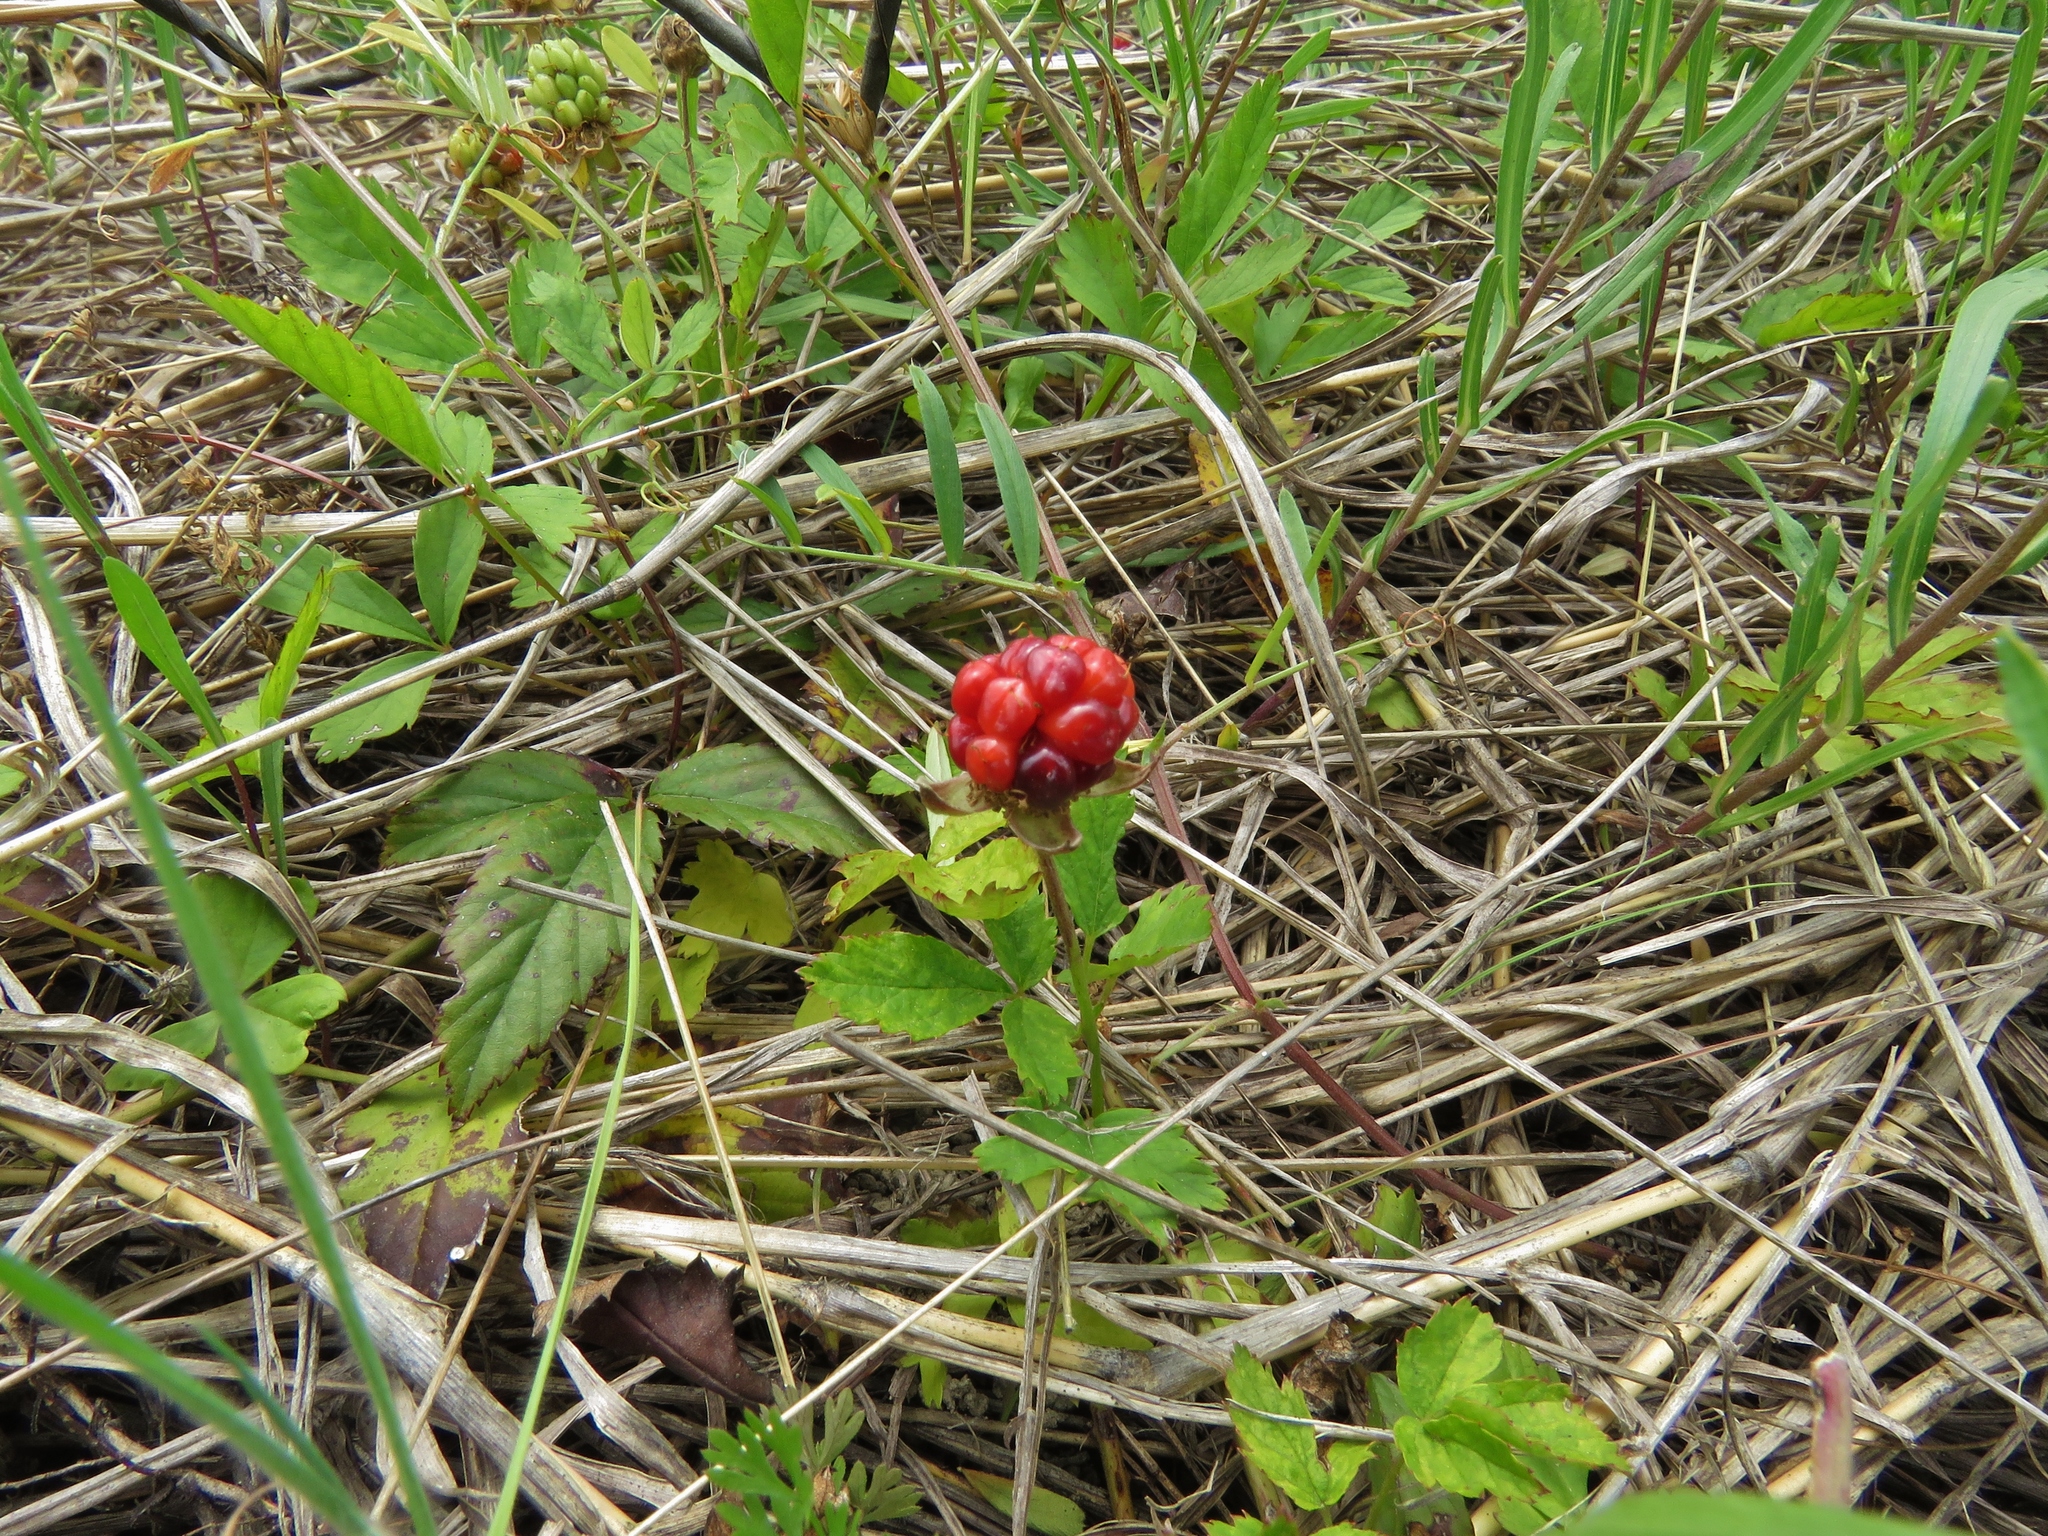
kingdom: Plantae
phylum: Tracheophyta
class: Magnoliopsida
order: Rosales
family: Rosaceae
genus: Rubus
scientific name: Rubus trivialis
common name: Southern dewberry
